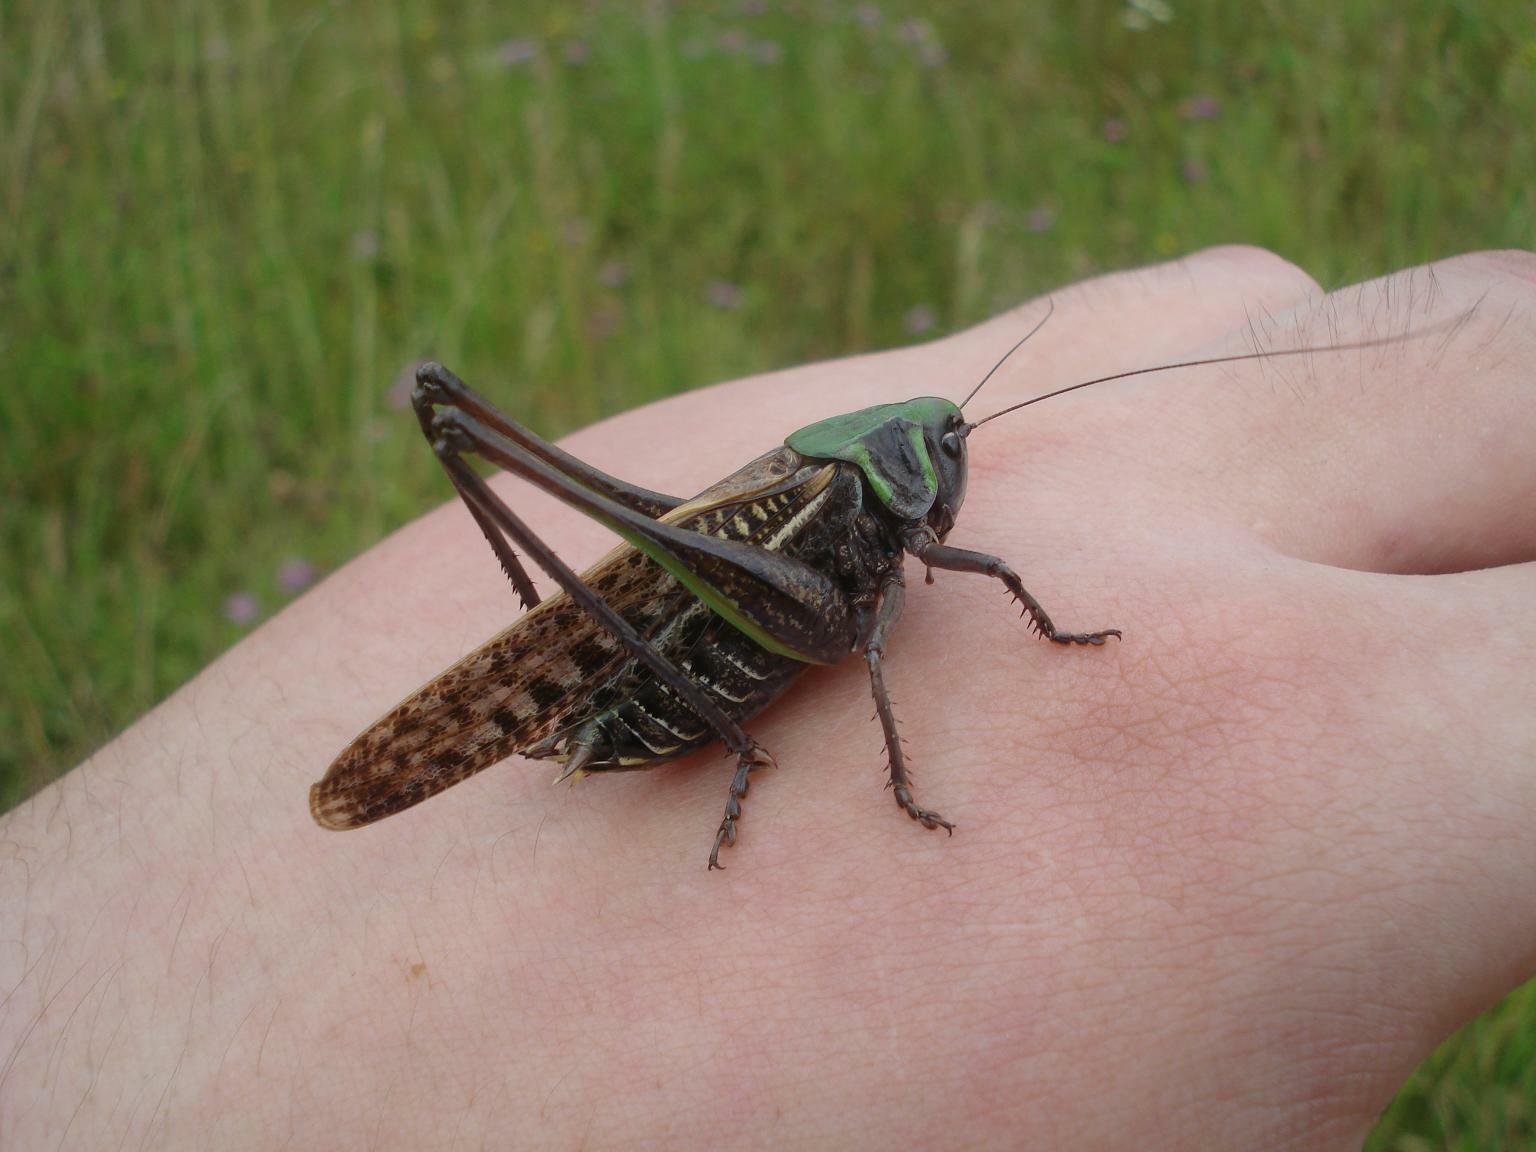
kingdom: Animalia
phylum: Arthropoda
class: Insecta
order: Orthoptera
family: Tettigoniidae
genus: Decticus
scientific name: Decticus verrucivorus
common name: Wart-biter
